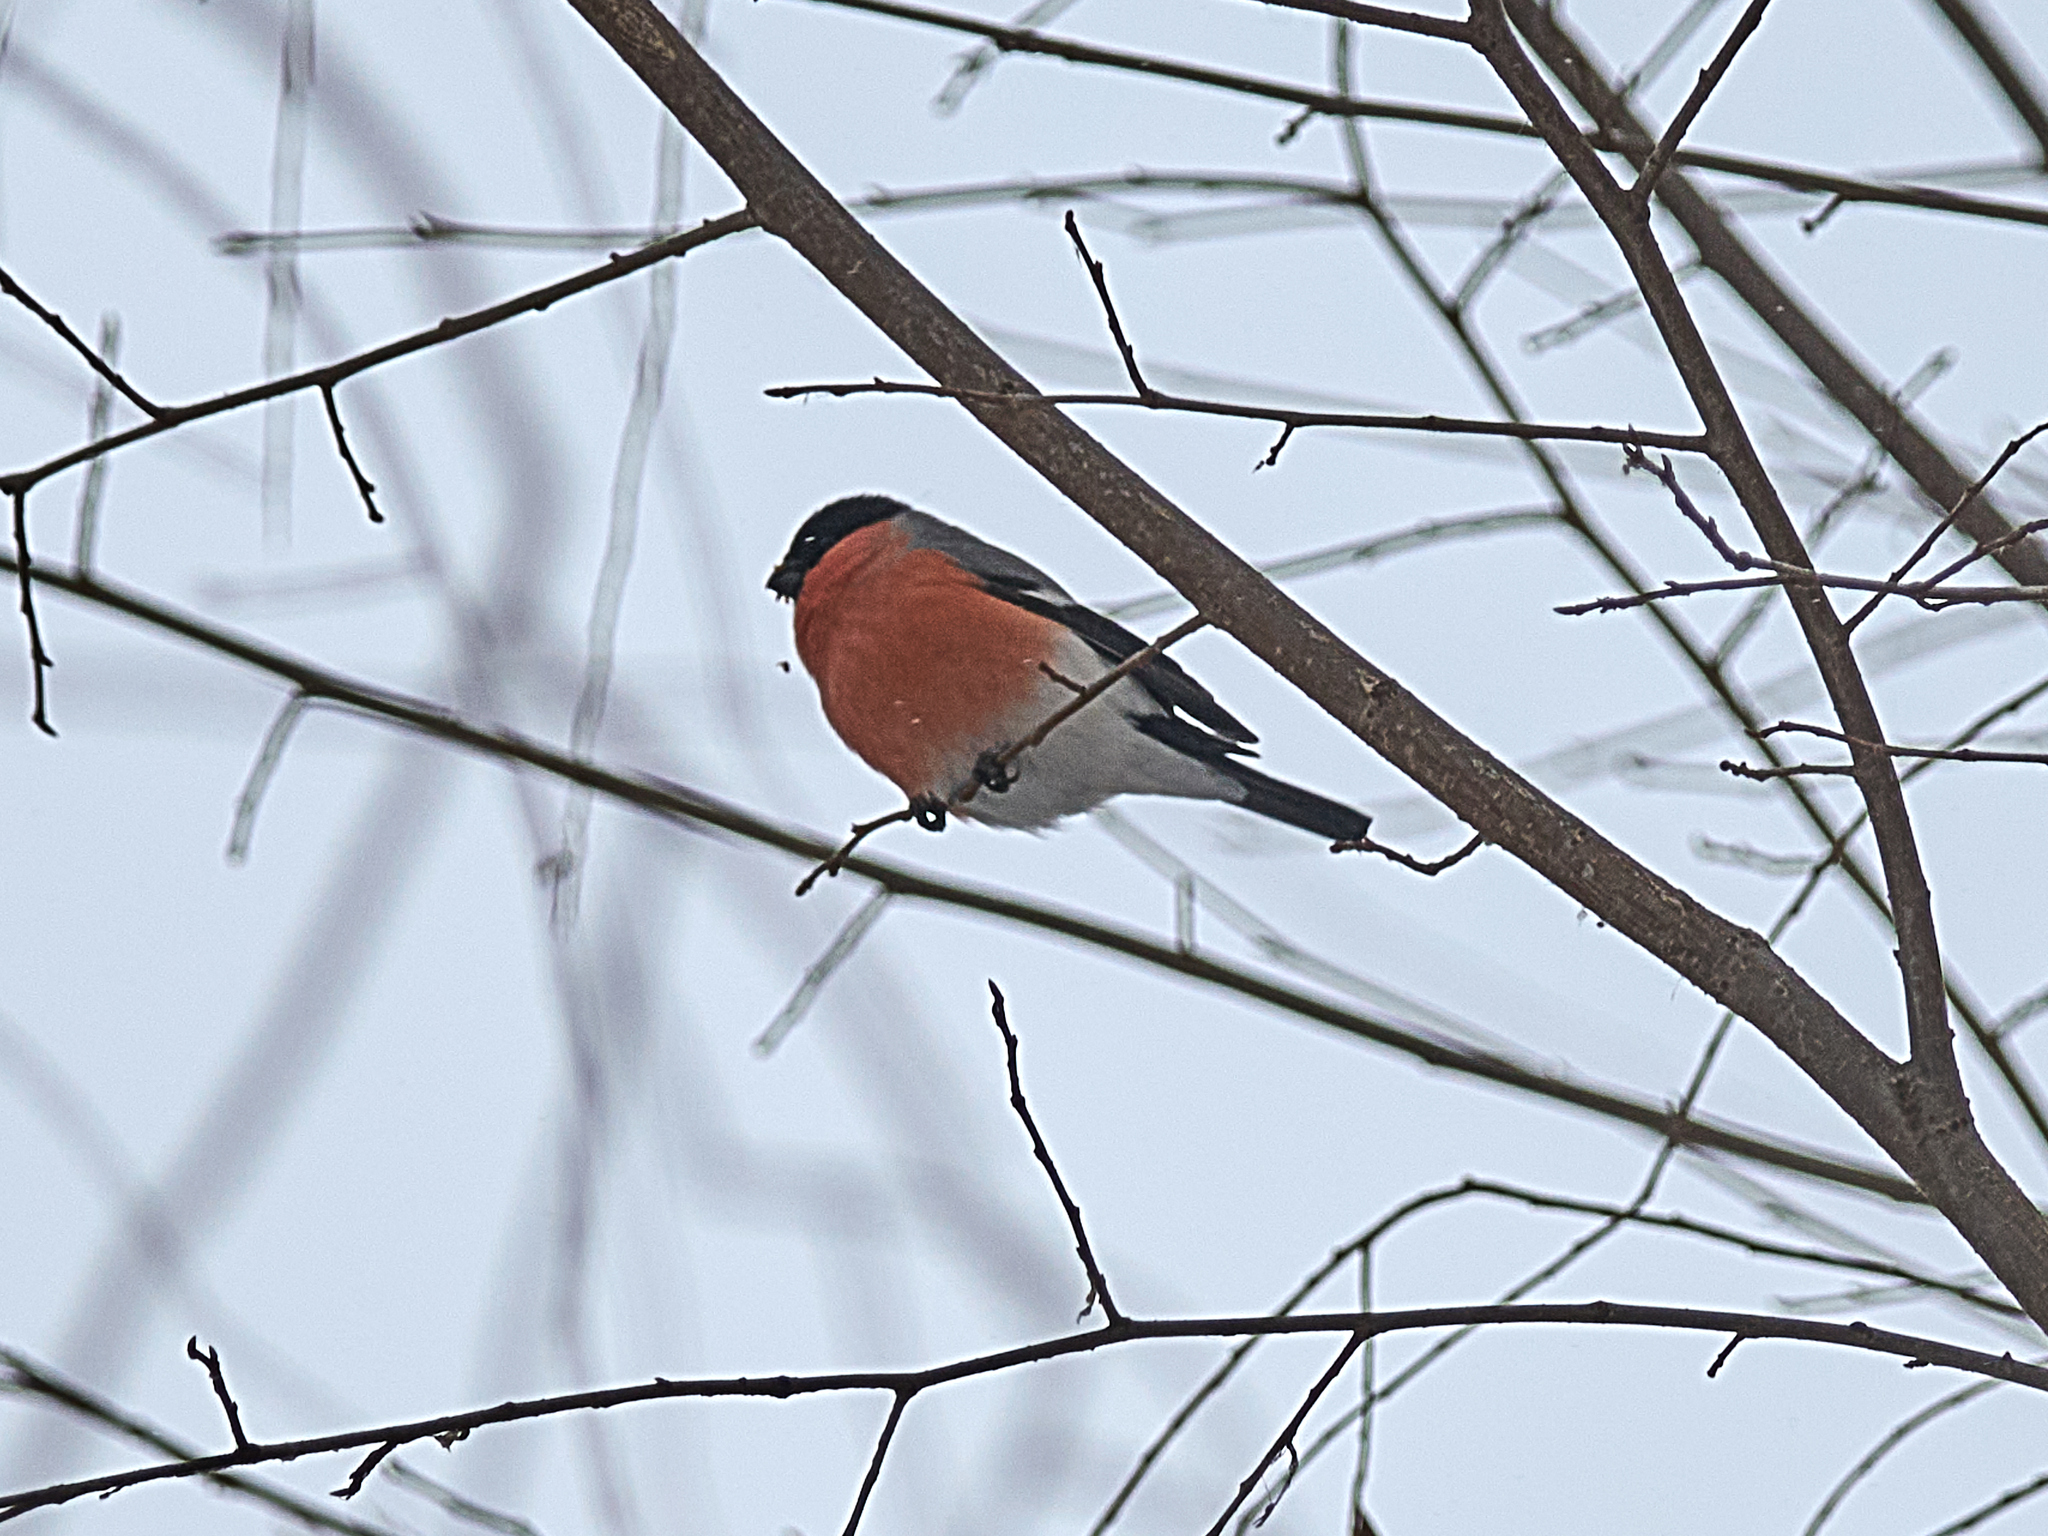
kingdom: Animalia
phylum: Chordata
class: Aves
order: Passeriformes
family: Fringillidae
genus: Pyrrhula
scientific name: Pyrrhula pyrrhula
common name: Eurasian bullfinch
